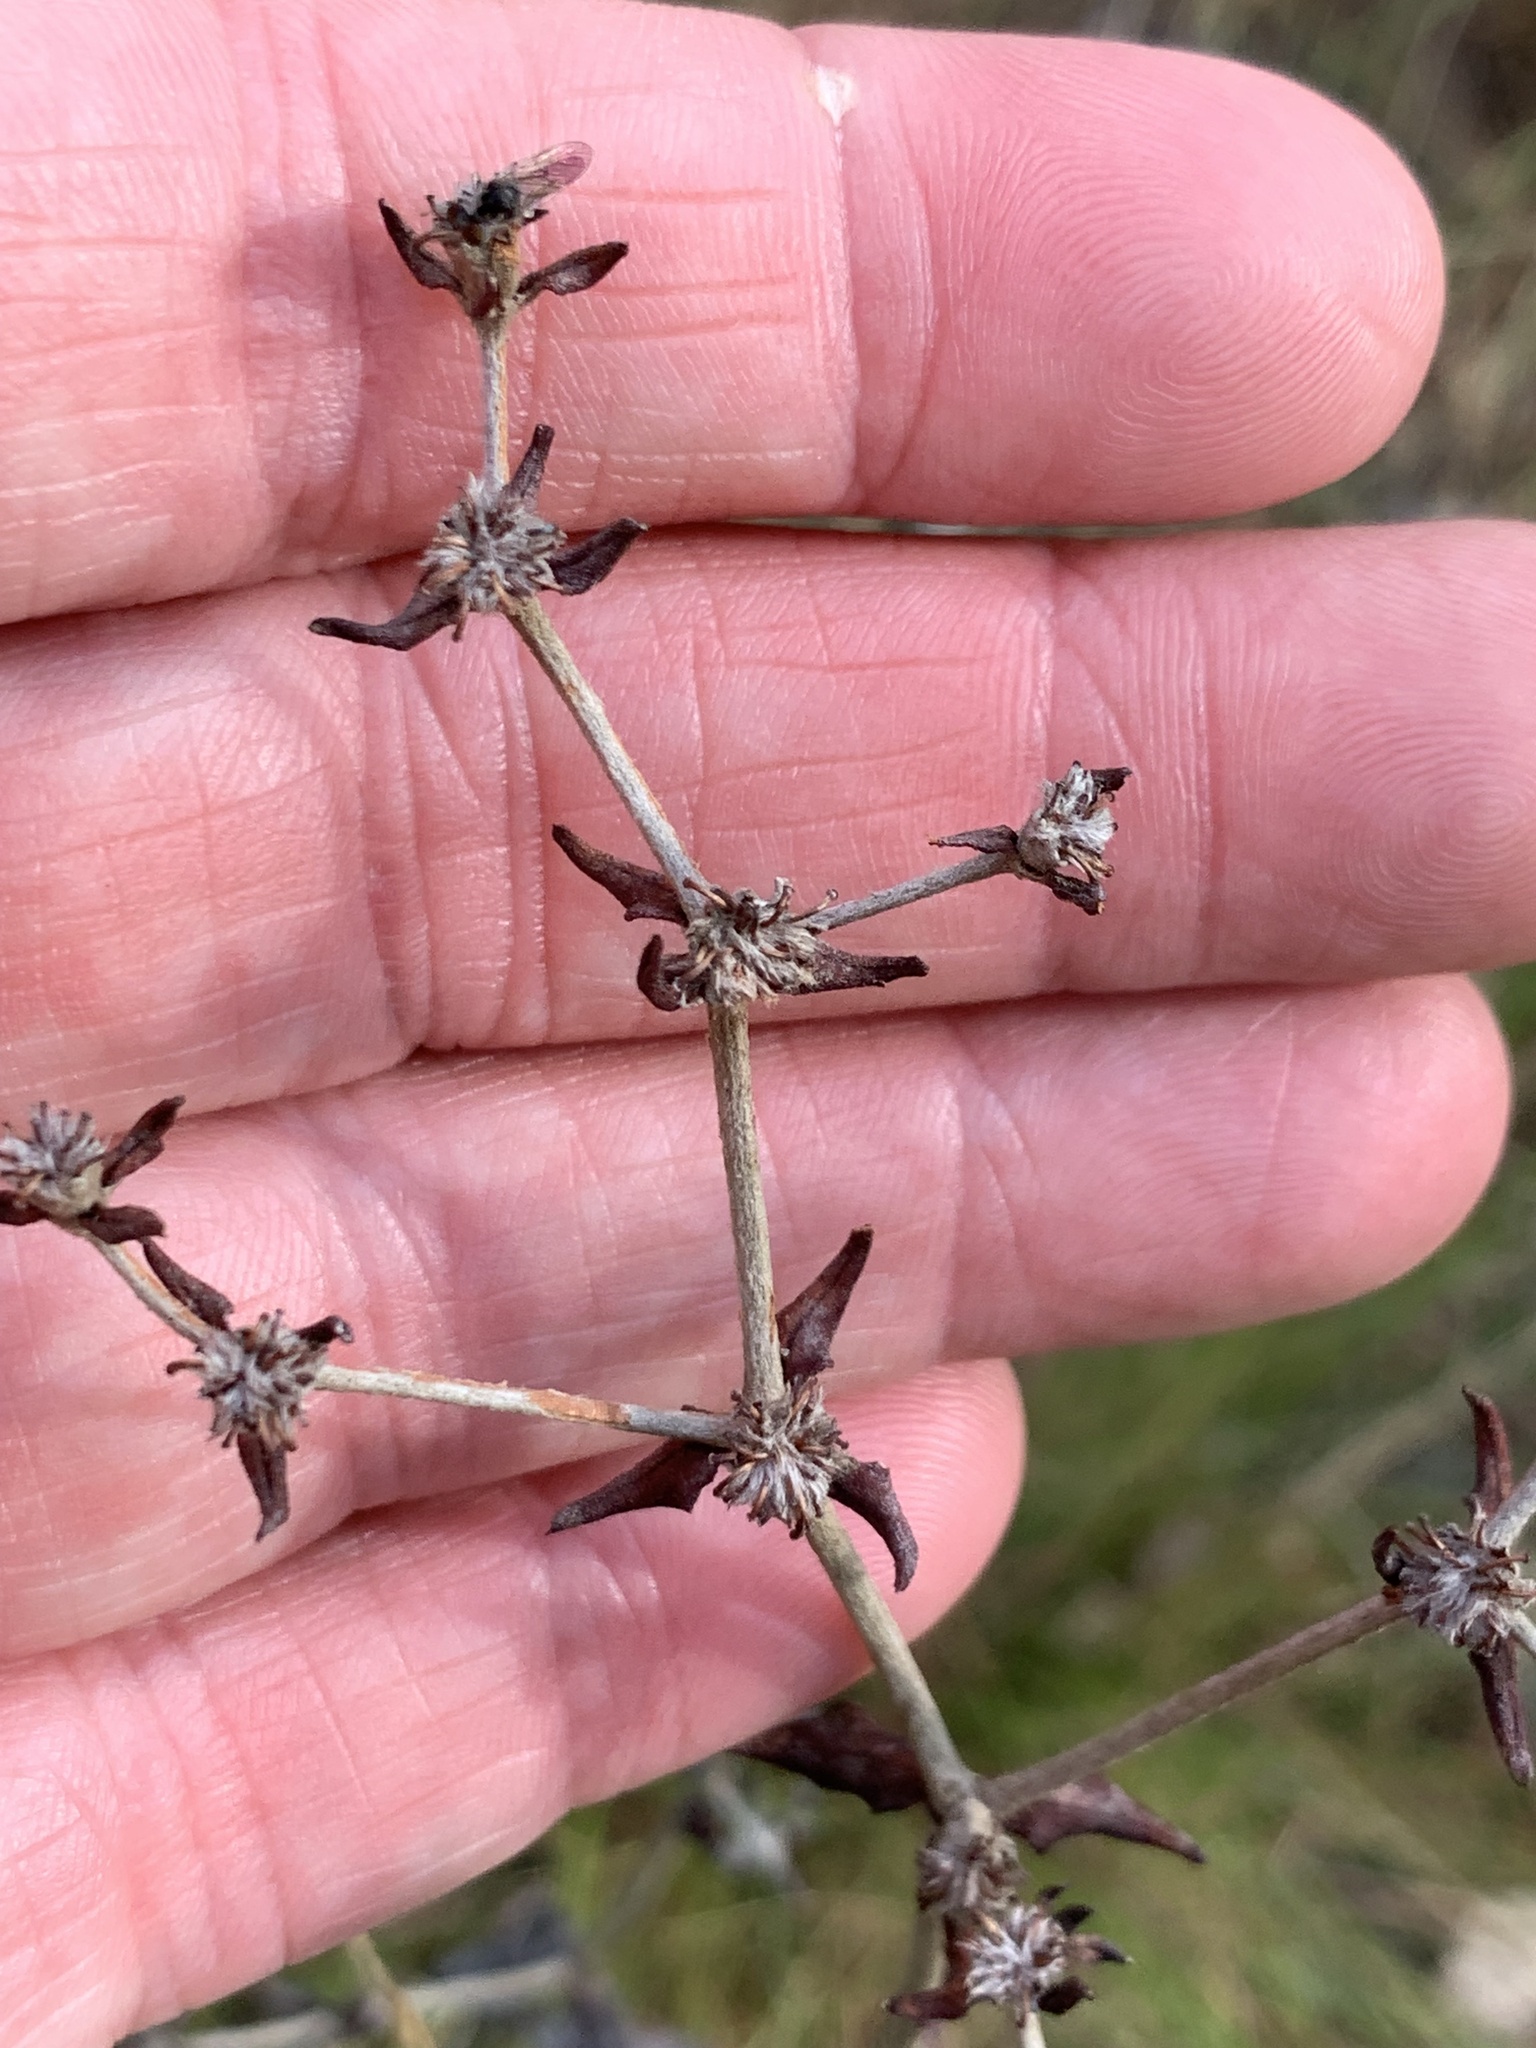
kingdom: Plantae
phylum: Tracheophyta
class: Magnoliopsida
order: Caryophyllales
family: Polygonaceae
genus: Eriogonum
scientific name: Eriogonum tomentosum
